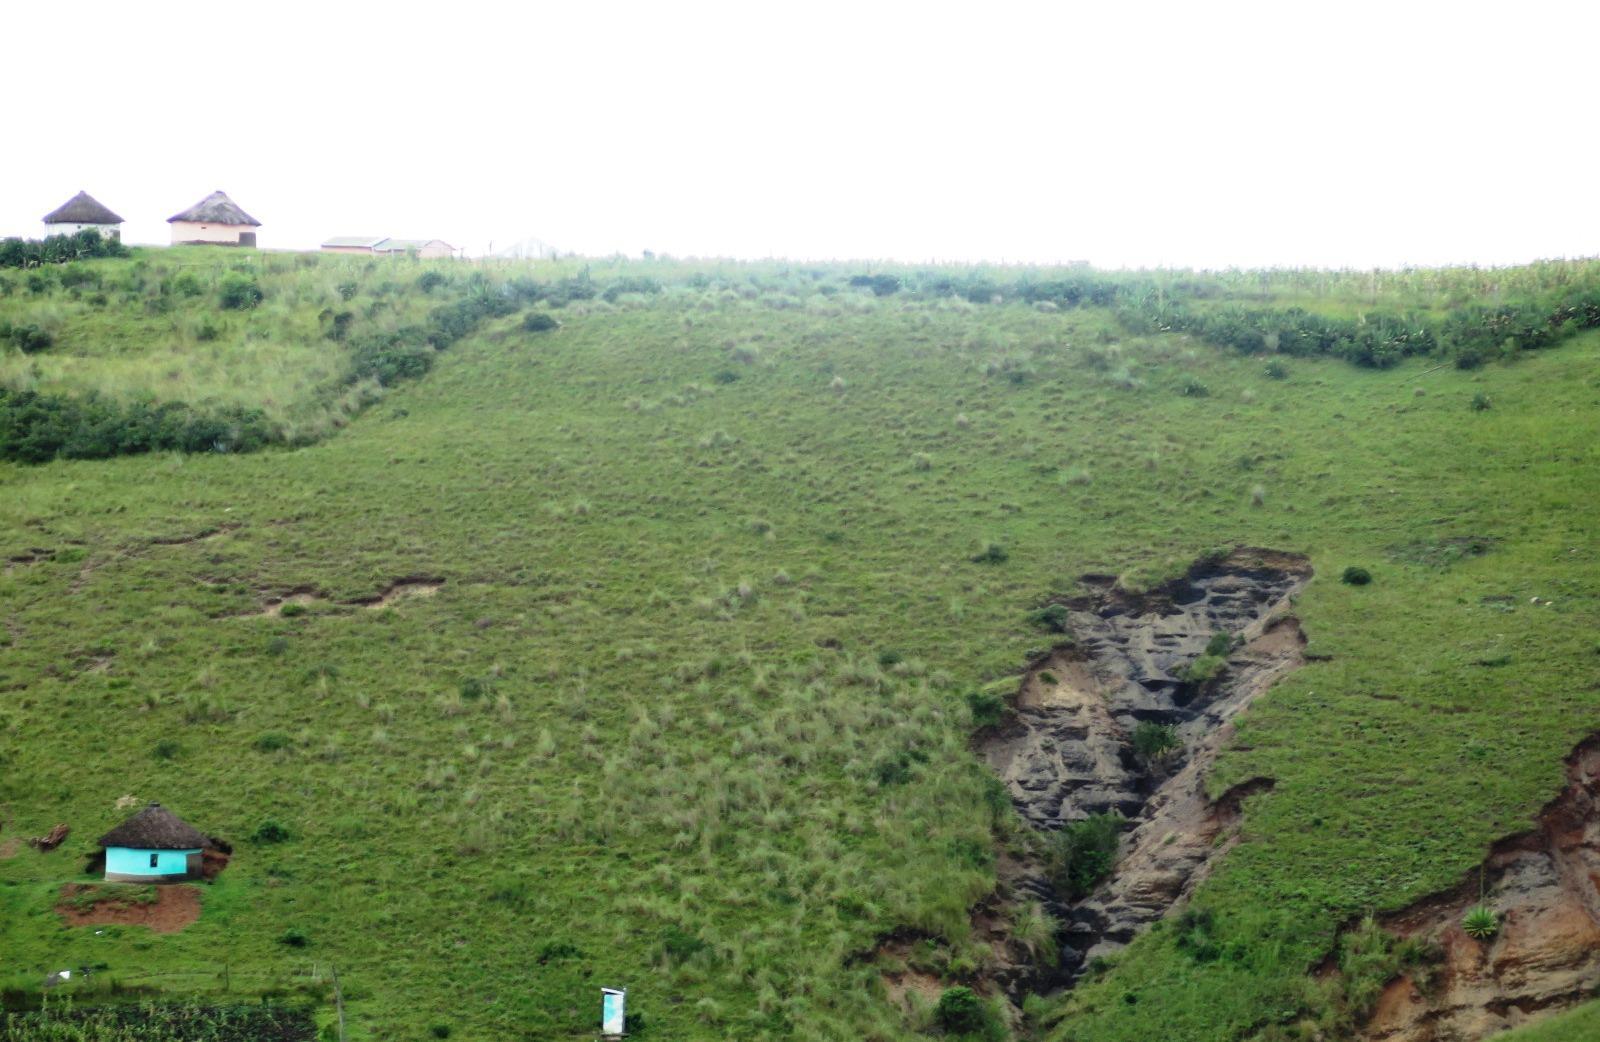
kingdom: Plantae
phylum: Tracheophyta
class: Liliopsida
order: Asparagales
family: Asparagaceae
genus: Furcraea
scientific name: Furcraea foetida
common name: Mauritius hemp
